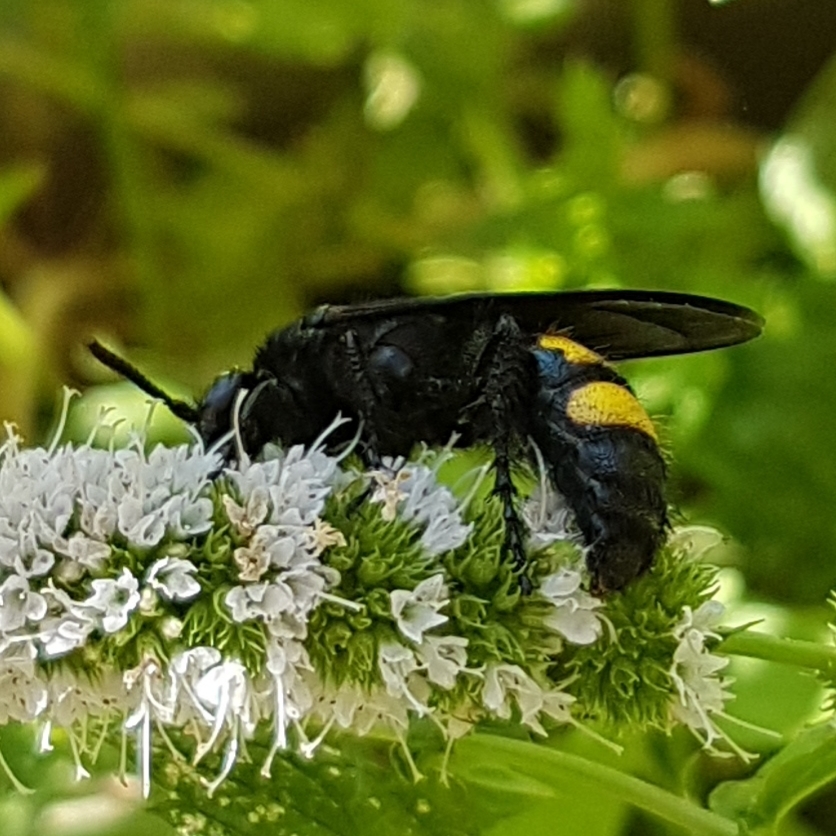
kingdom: Animalia
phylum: Arthropoda
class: Insecta
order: Hymenoptera
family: Scoliidae
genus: Scolia
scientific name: Scolia hirta
